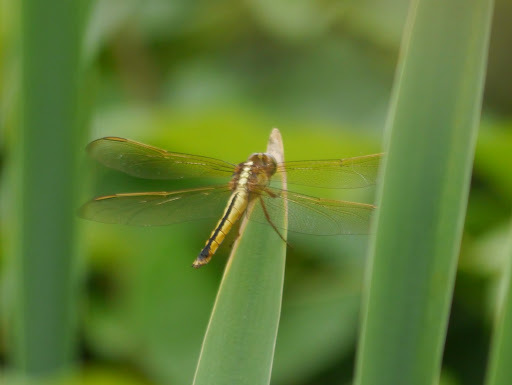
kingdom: Animalia
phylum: Arthropoda
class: Insecta
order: Odonata
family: Libellulidae
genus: Libellula
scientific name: Libellula needhami
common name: Needham's skimmer
